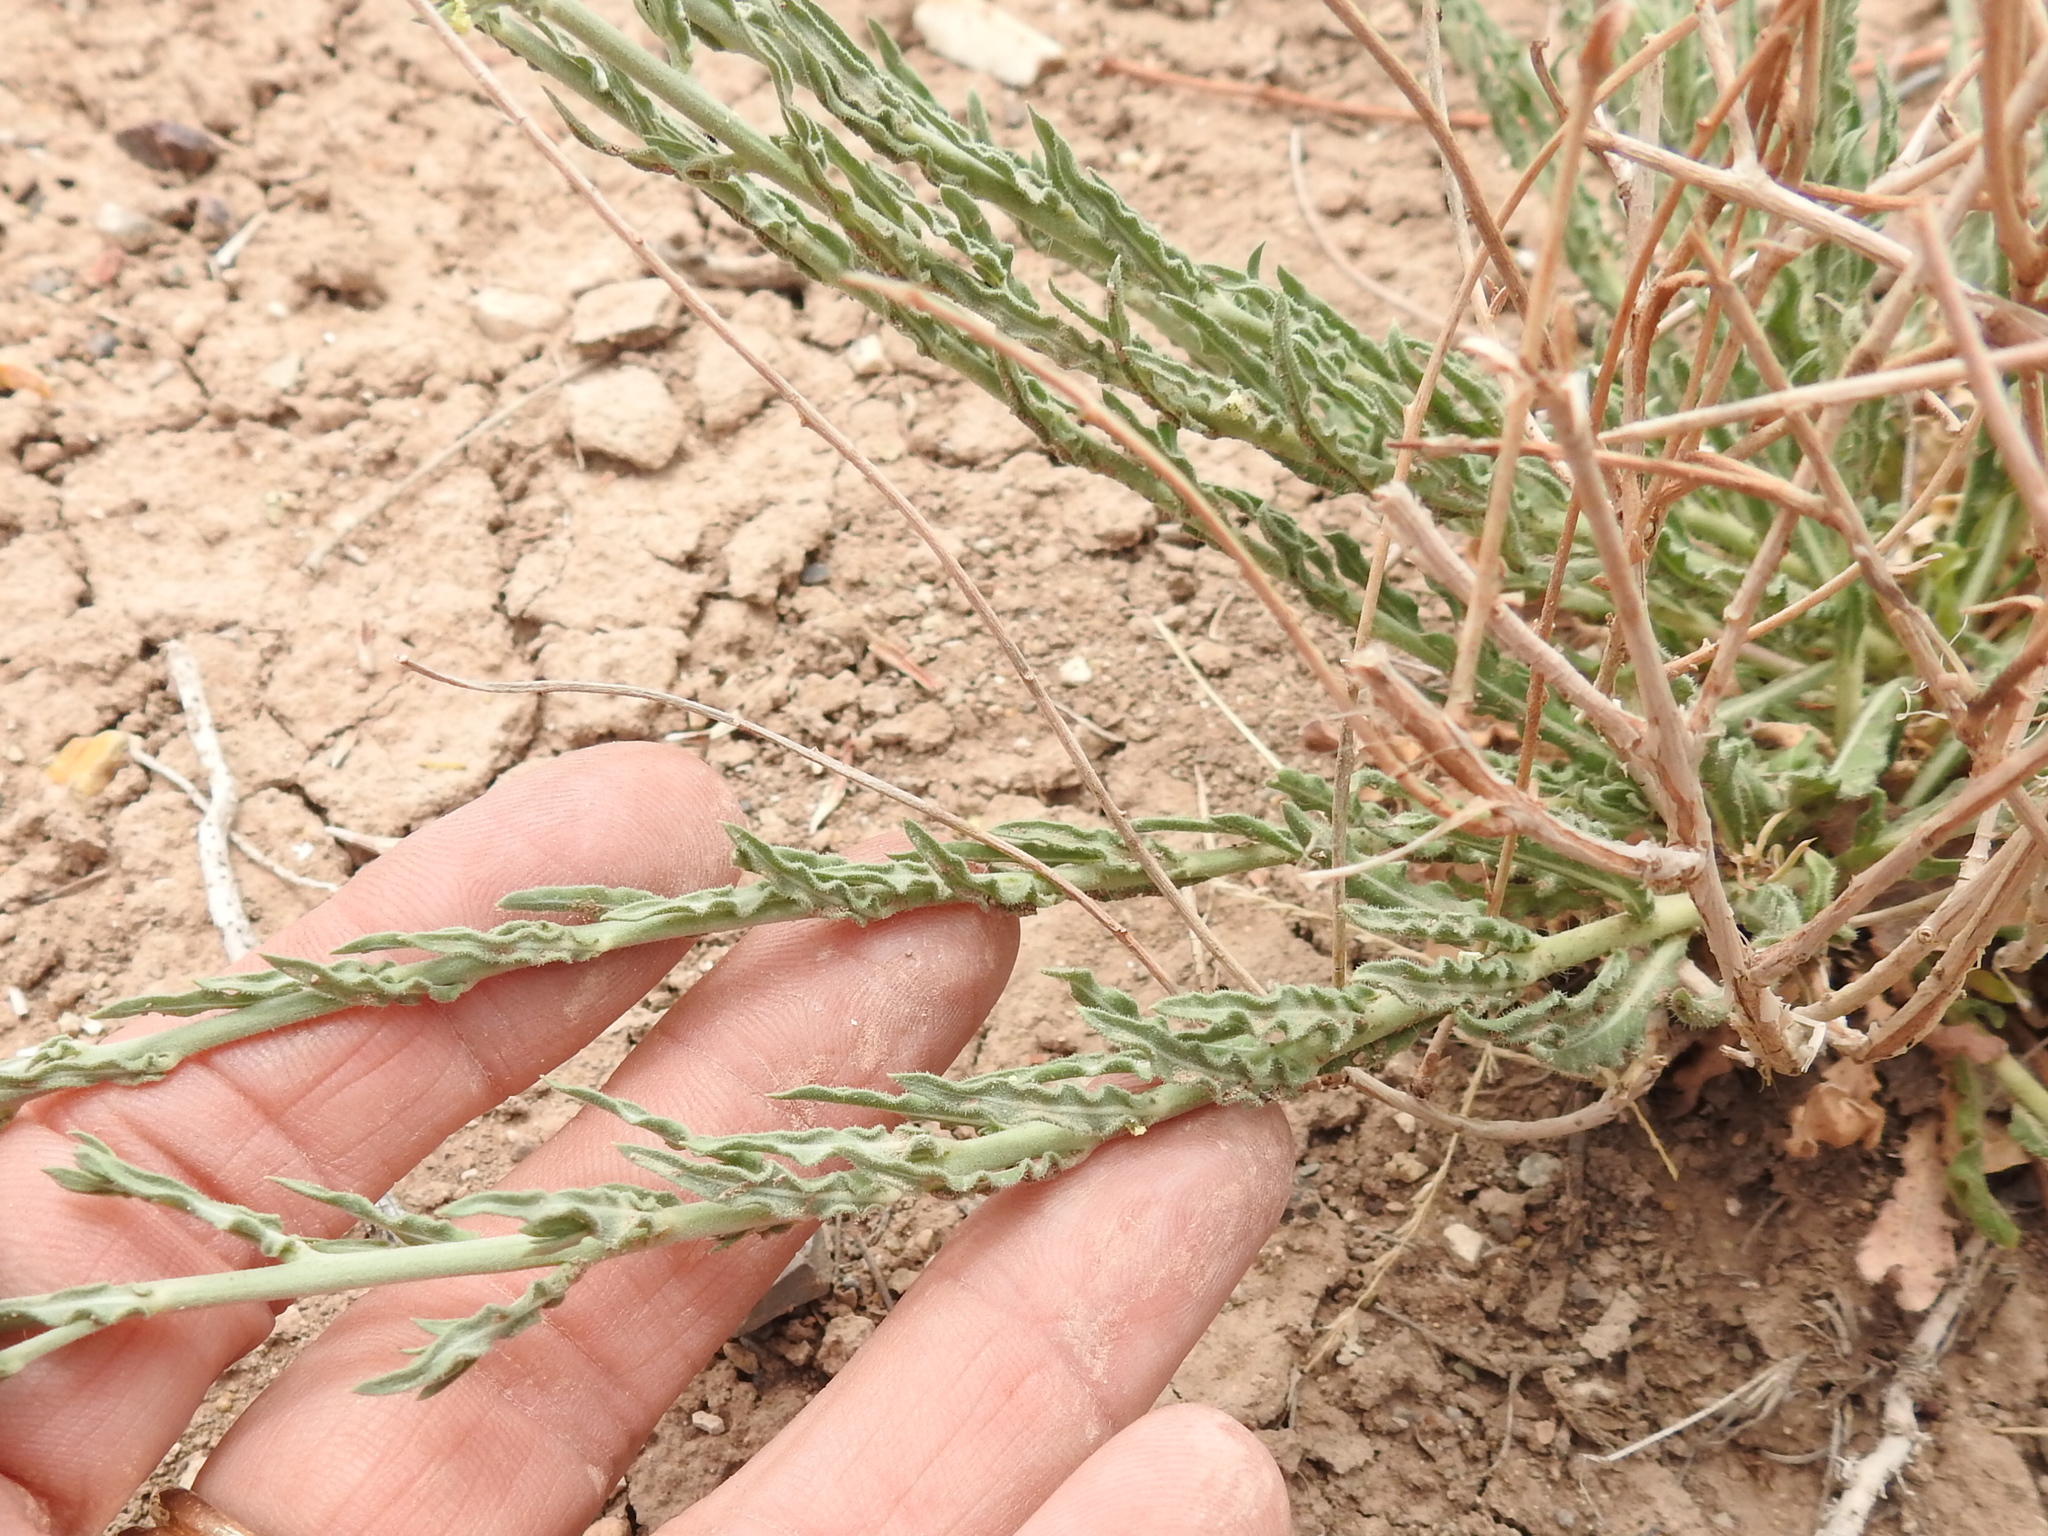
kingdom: Plantae
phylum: Tracheophyta
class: Magnoliopsida
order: Myrtales
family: Onagraceae
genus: Oenothera
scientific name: Oenothera arida
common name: Trans-pecos beeblossom
